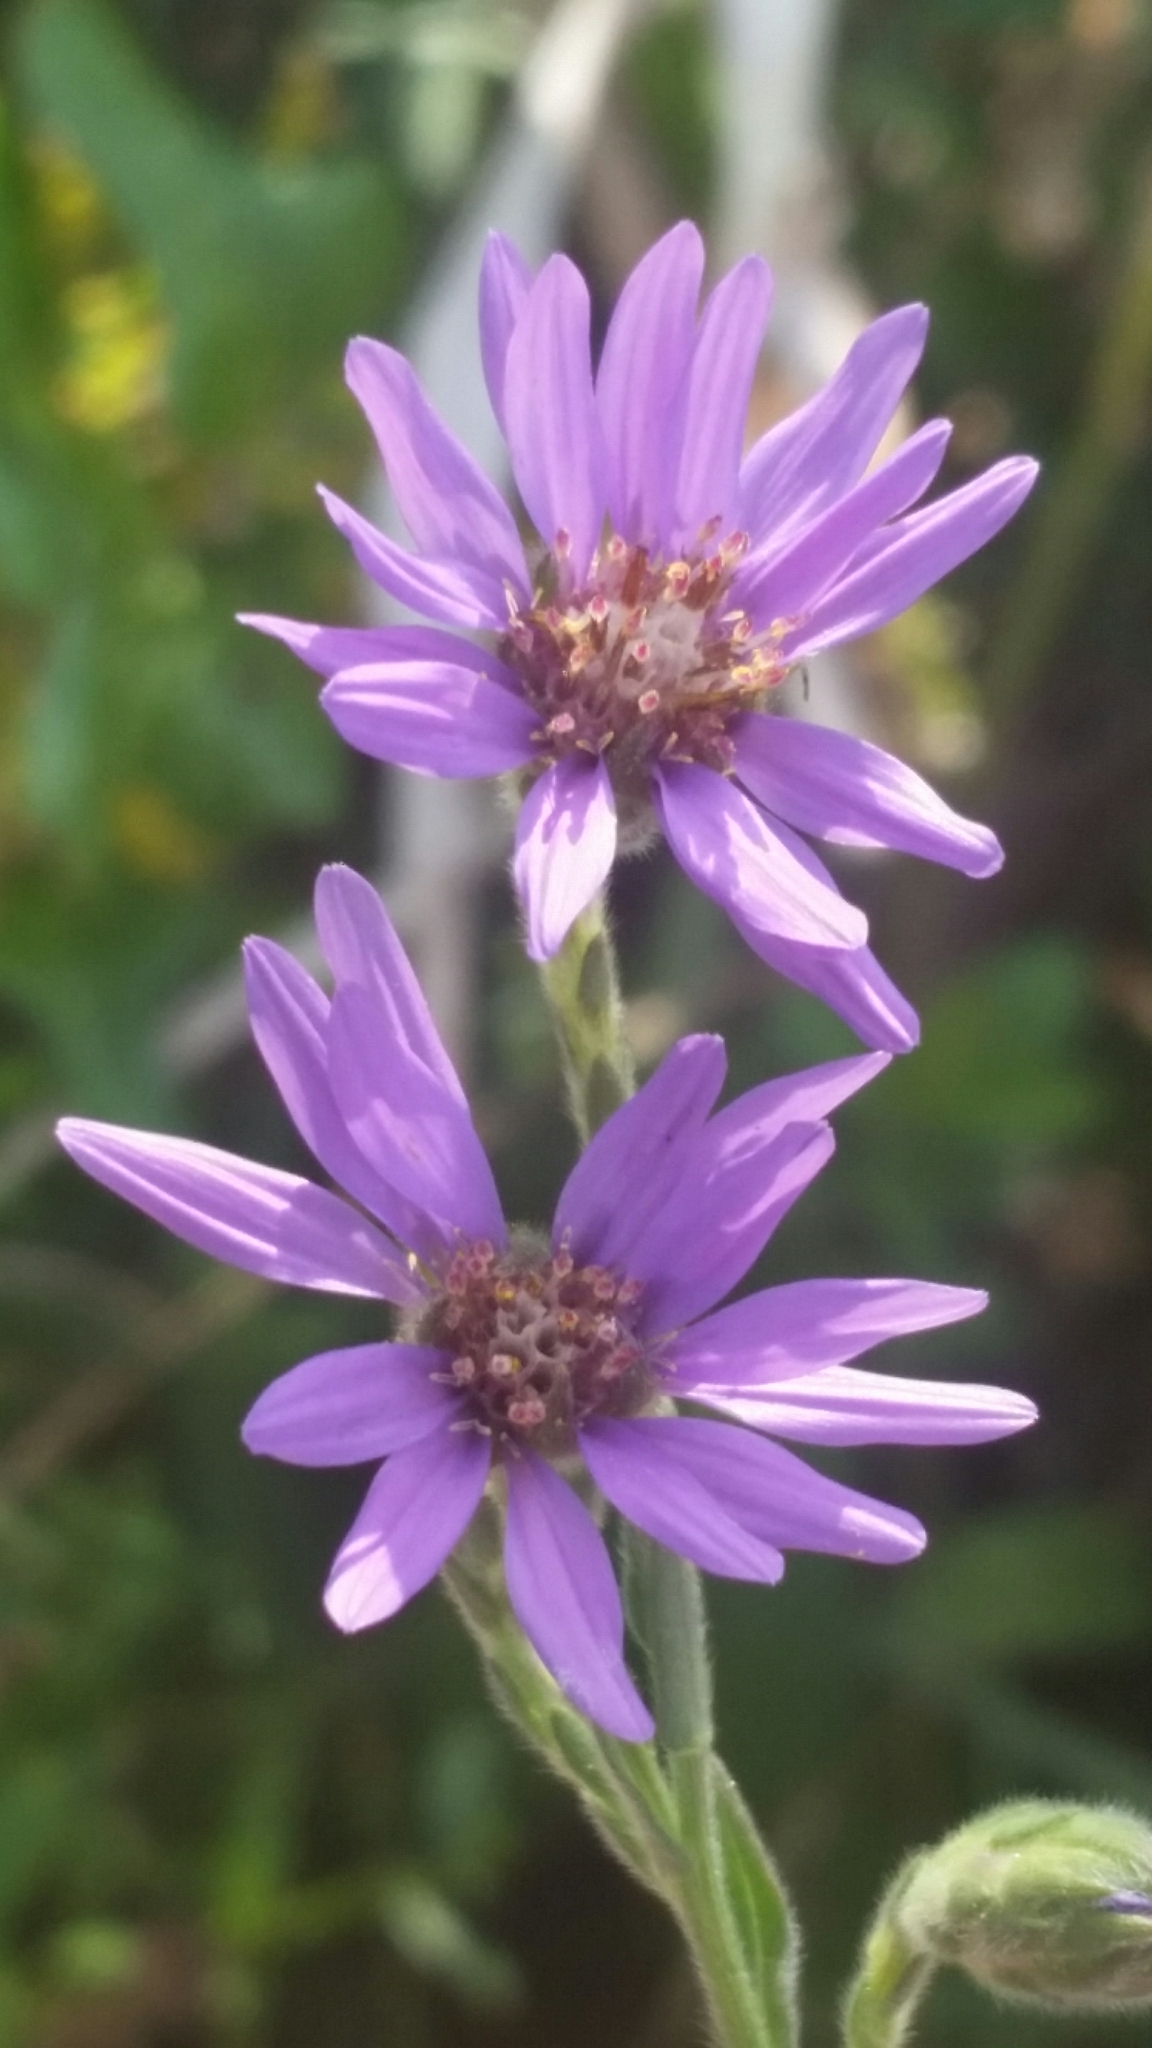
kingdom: Plantae
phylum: Tracheophyta
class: Magnoliopsida
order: Asterales
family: Asteraceae
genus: Symphyotrichum
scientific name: Symphyotrichum concolor
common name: Eastern silver aster
